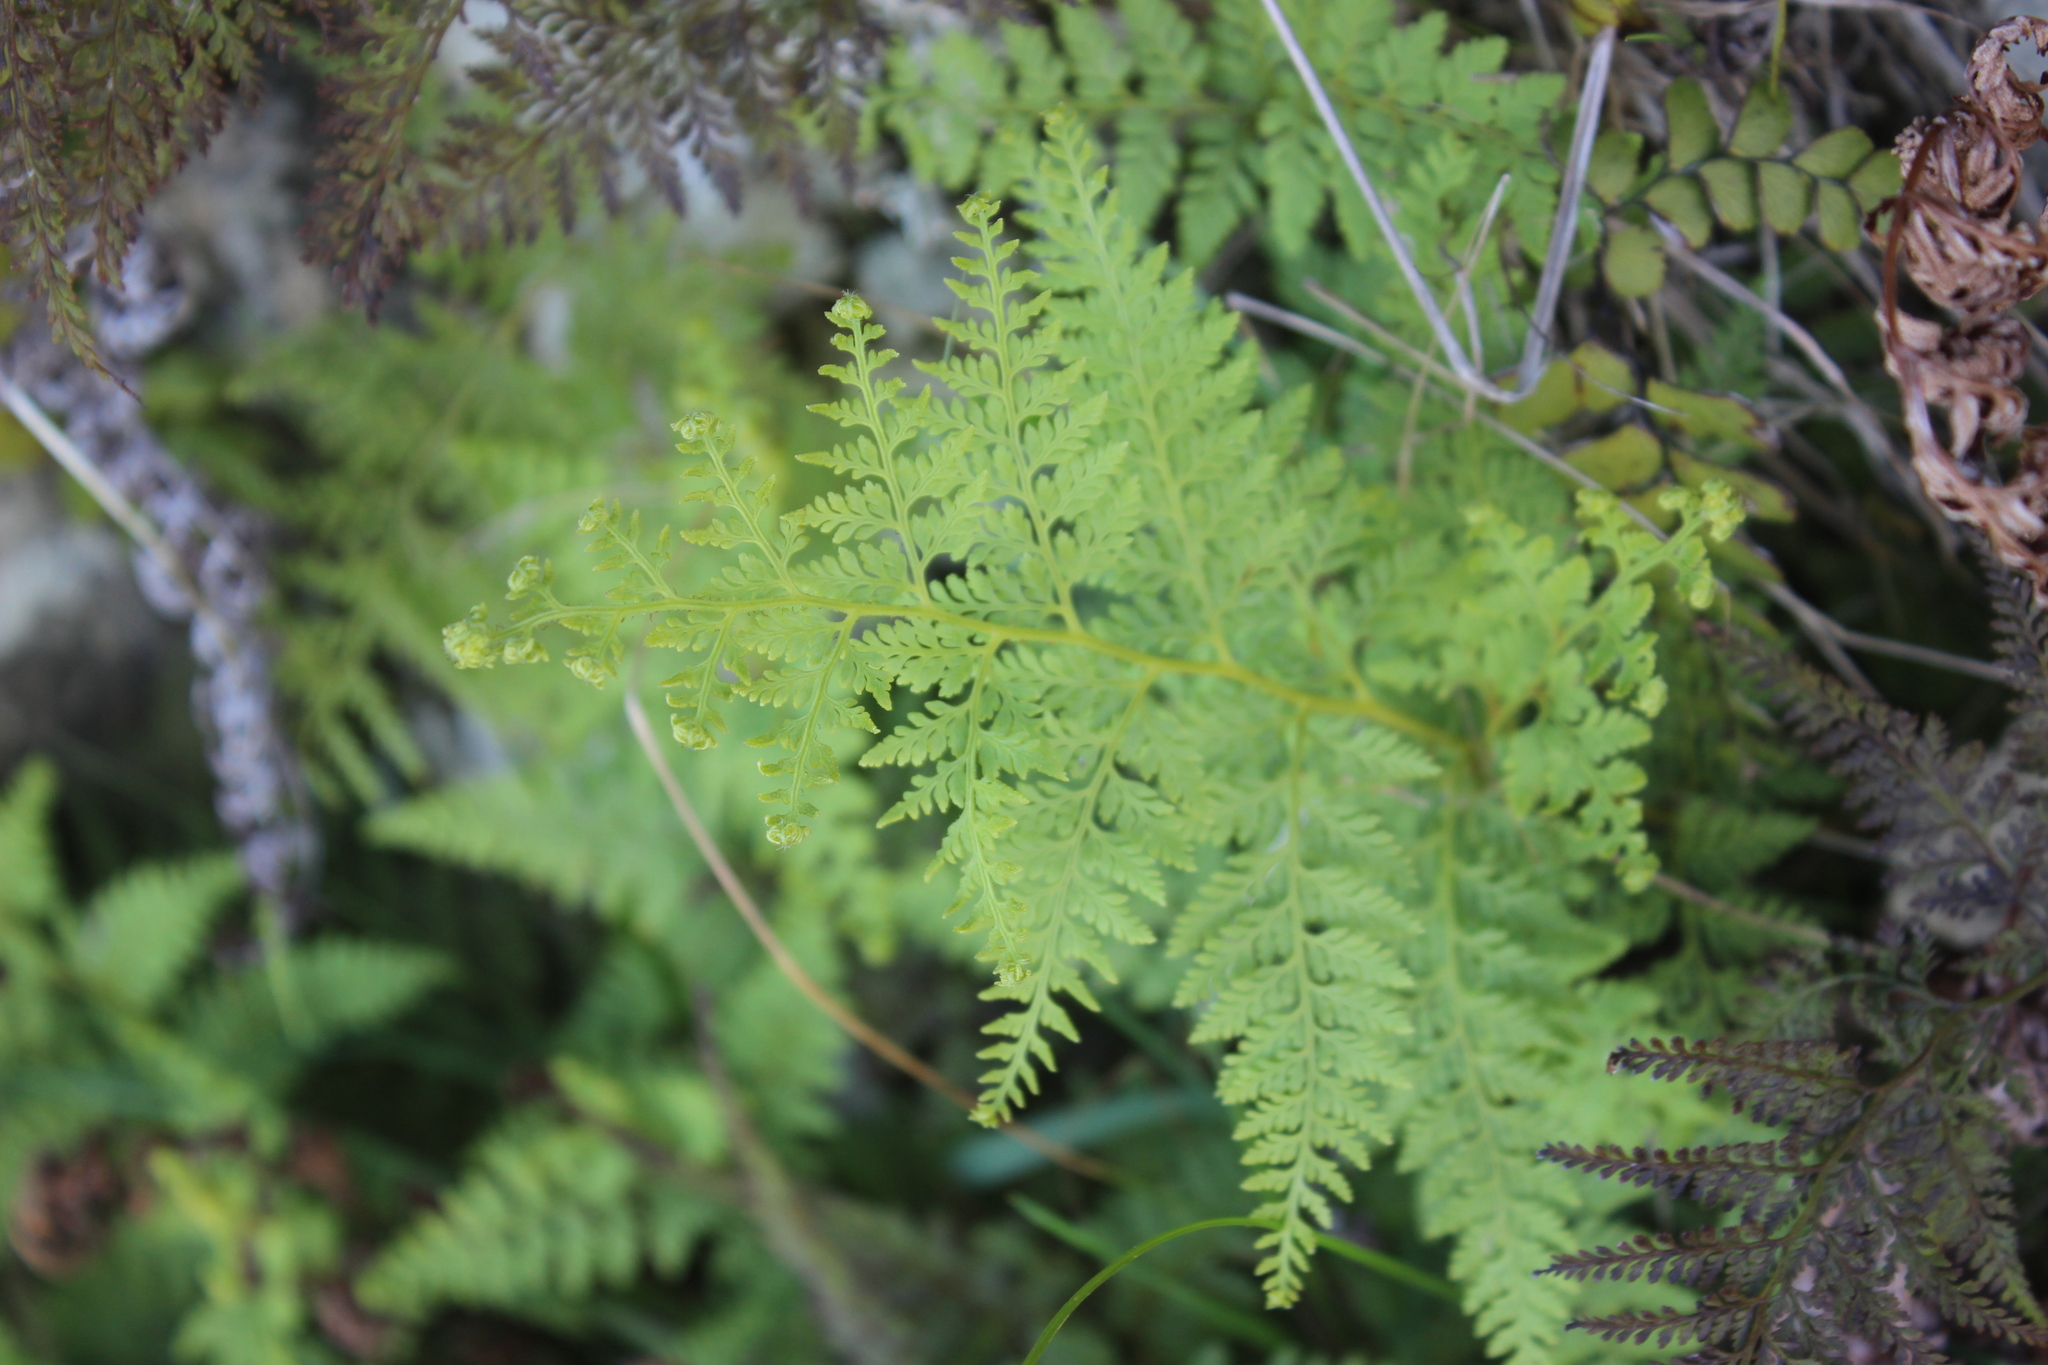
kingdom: Plantae
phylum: Tracheophyta
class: Polypodiopsida
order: Polypodiales
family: Dennstaedtiaceae
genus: Paesia
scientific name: Paesia scaberula
